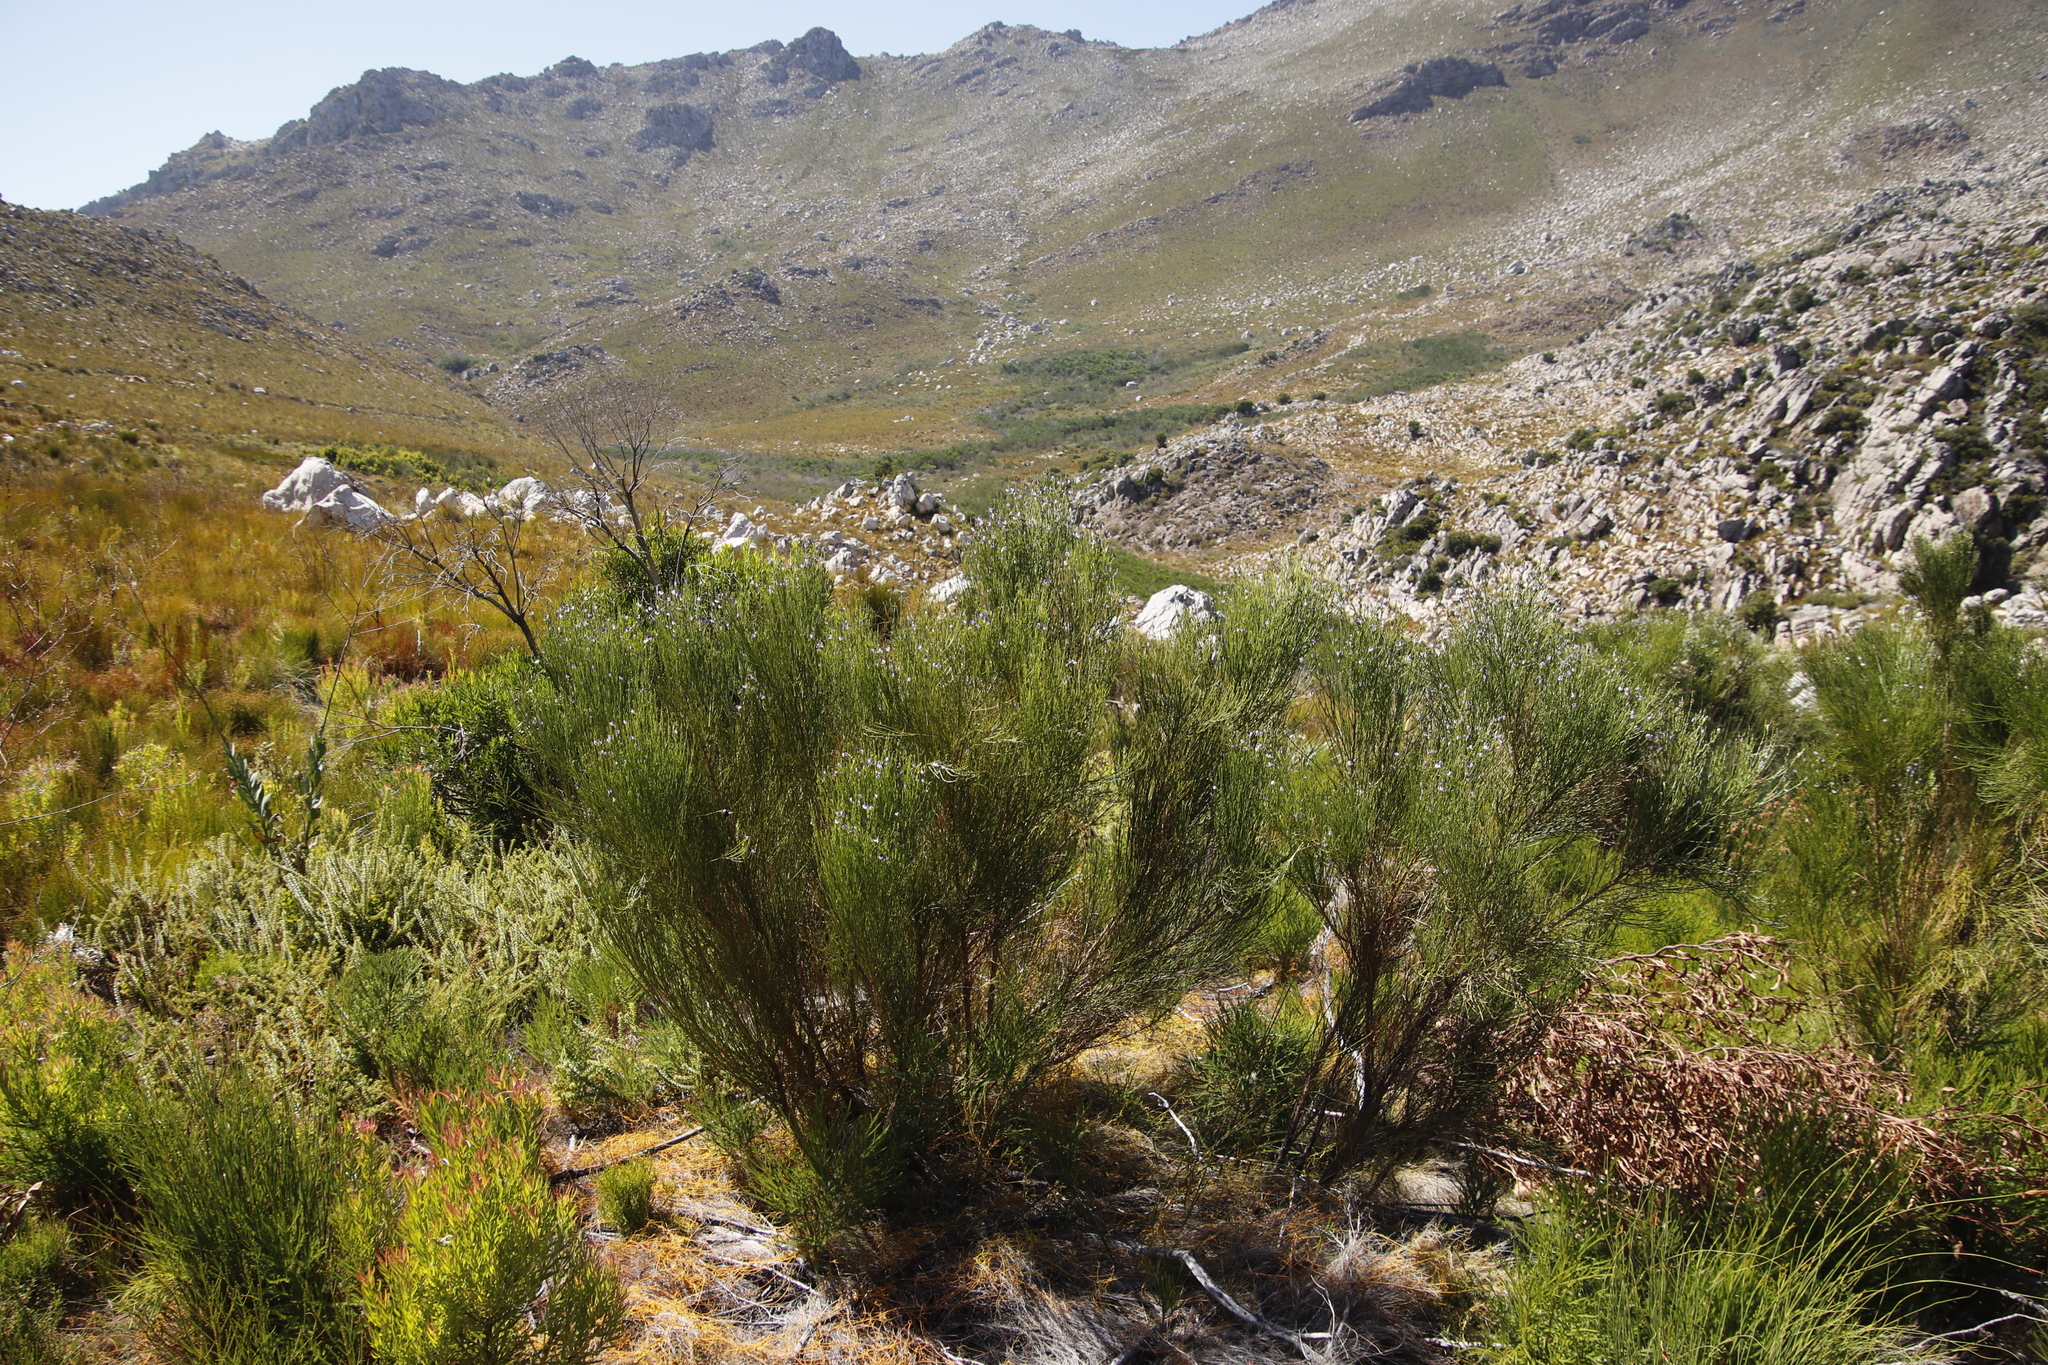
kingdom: Plantae
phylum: Tracheophyta
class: Magnoliopsida
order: Fabales
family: Fabaceae
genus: Psoralea
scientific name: Psoralea usitata
